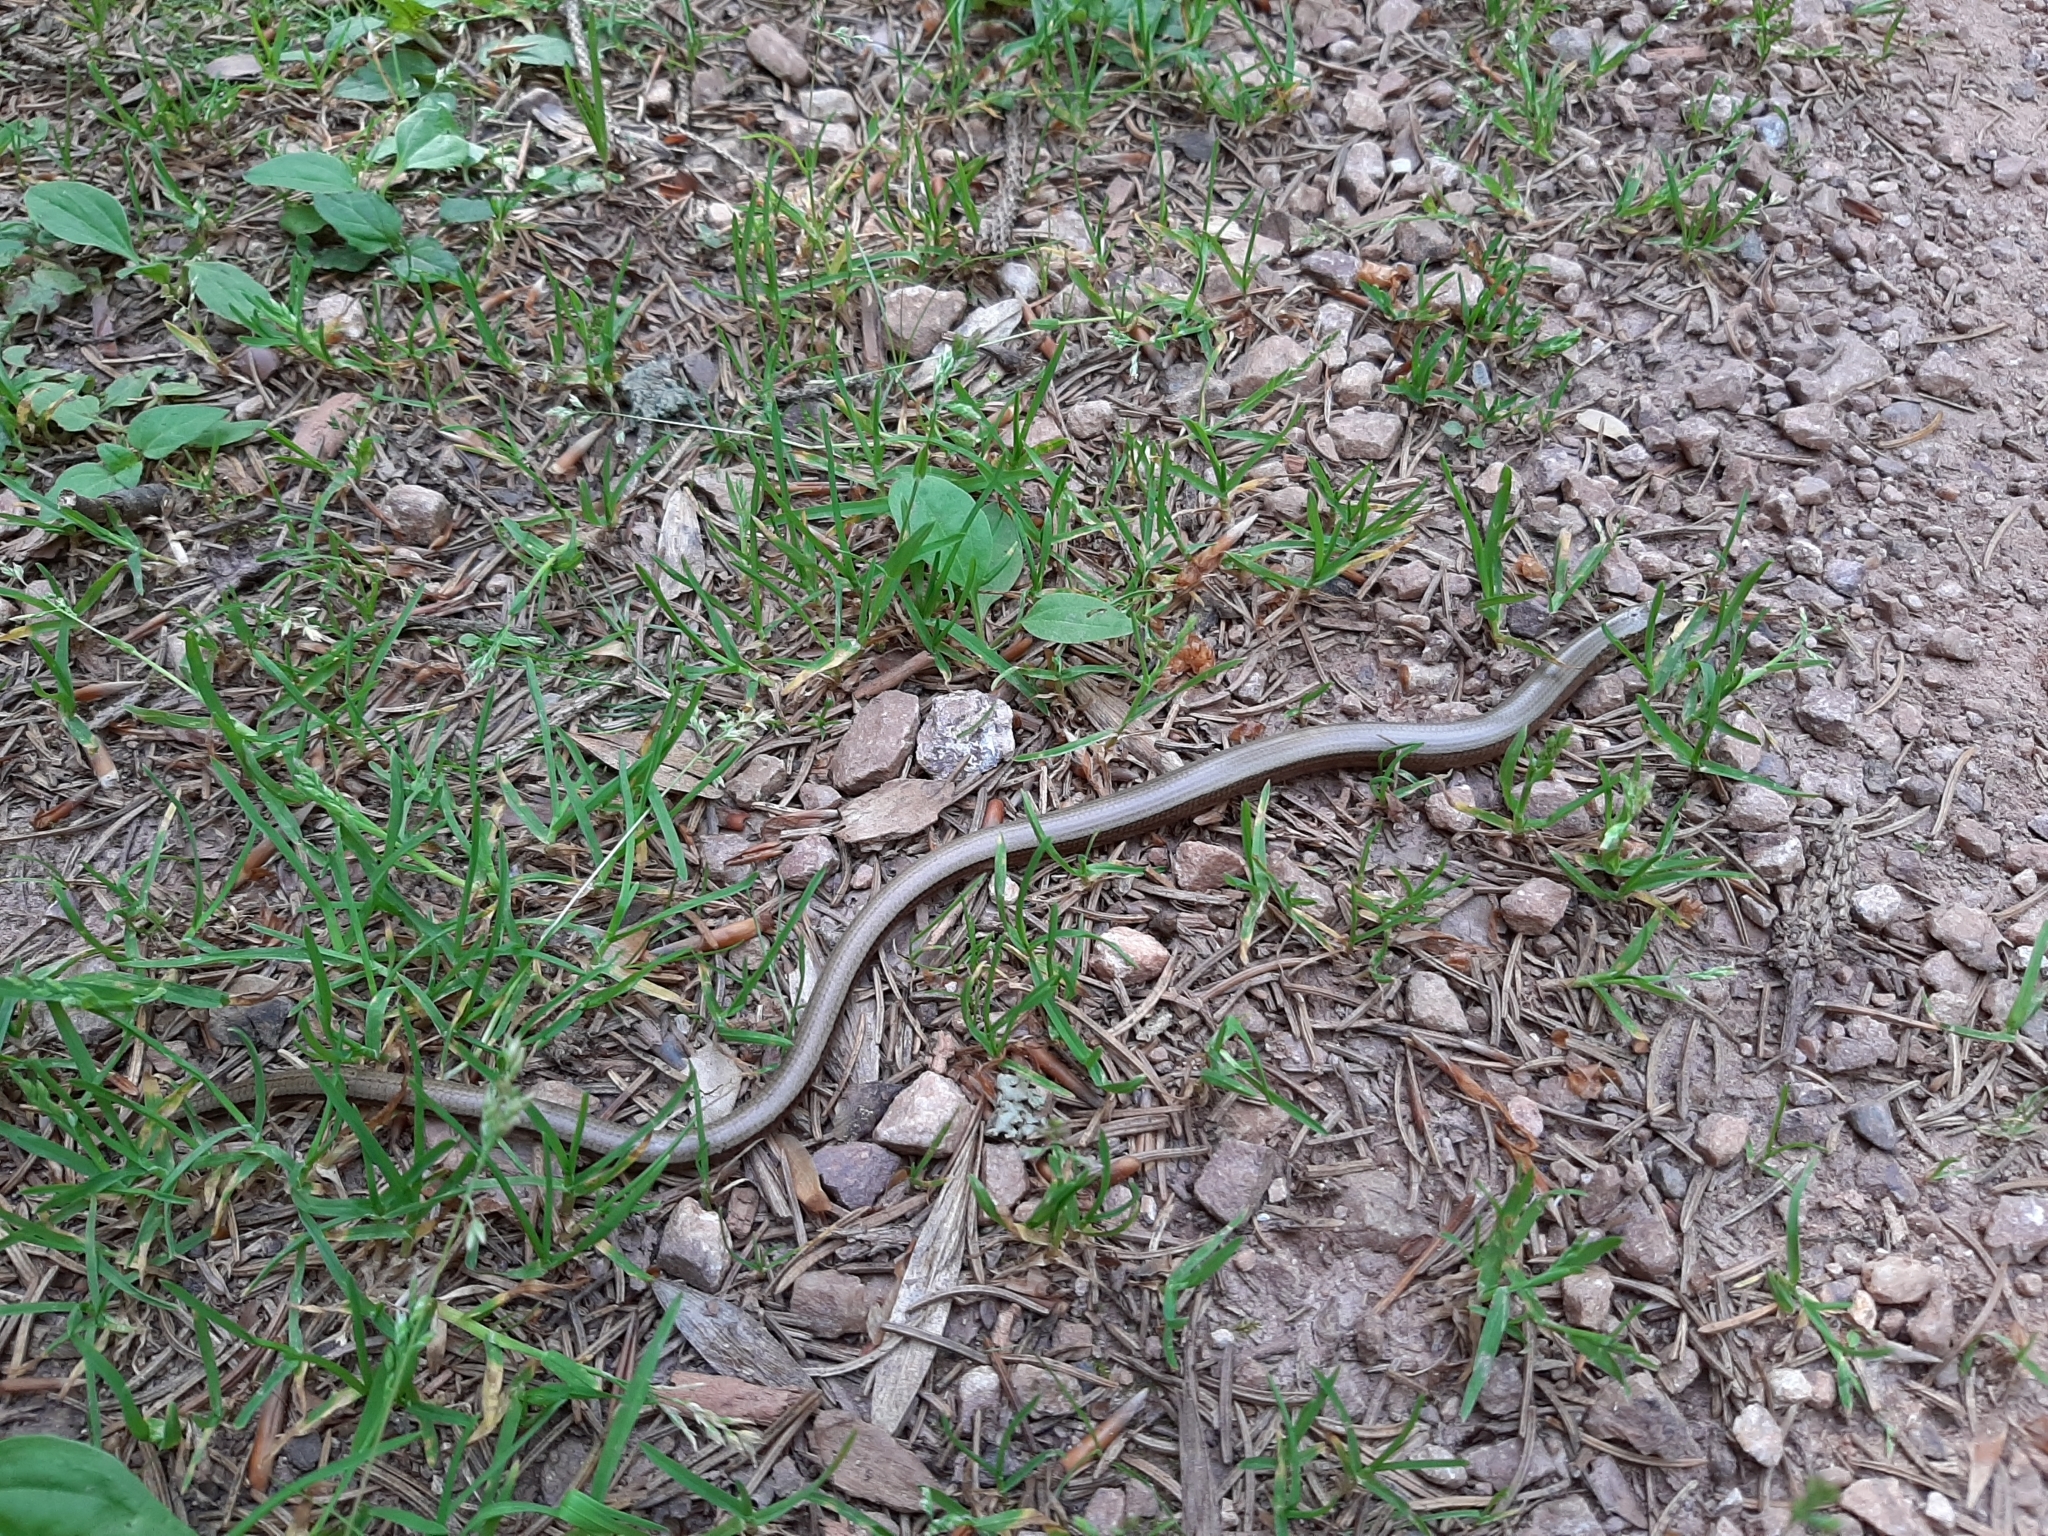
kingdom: Animalia
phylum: Chordata
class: Squamata
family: Anguidae
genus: Anguis
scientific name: Anguis fragilis
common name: Slow worm
